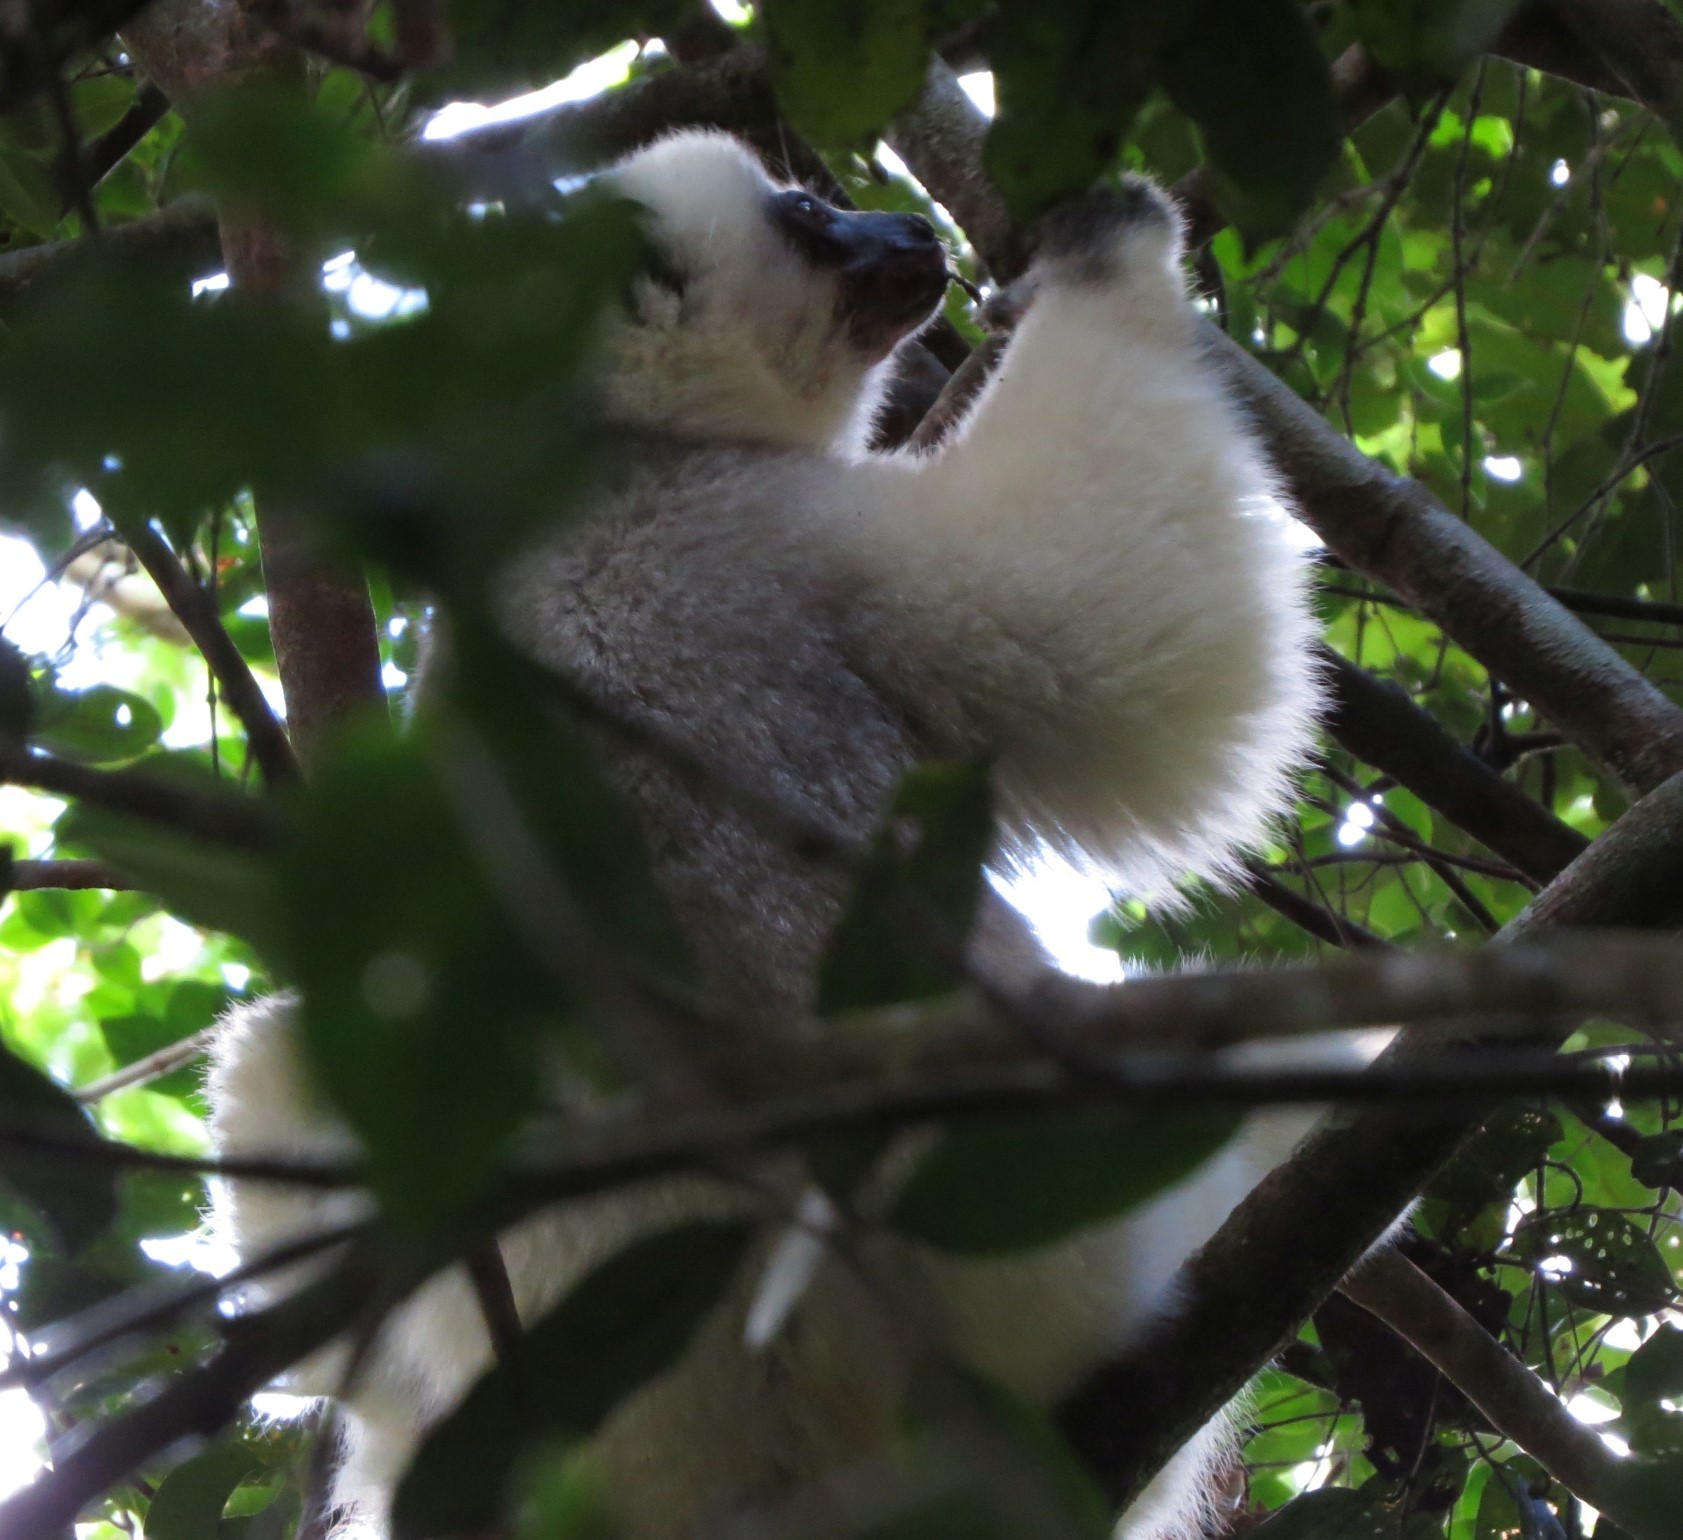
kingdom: Animalia
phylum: Chordata
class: Mammalia
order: Primates
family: Indriidae
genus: Propithecus
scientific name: Propithecus candidus
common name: Silky sifaka
